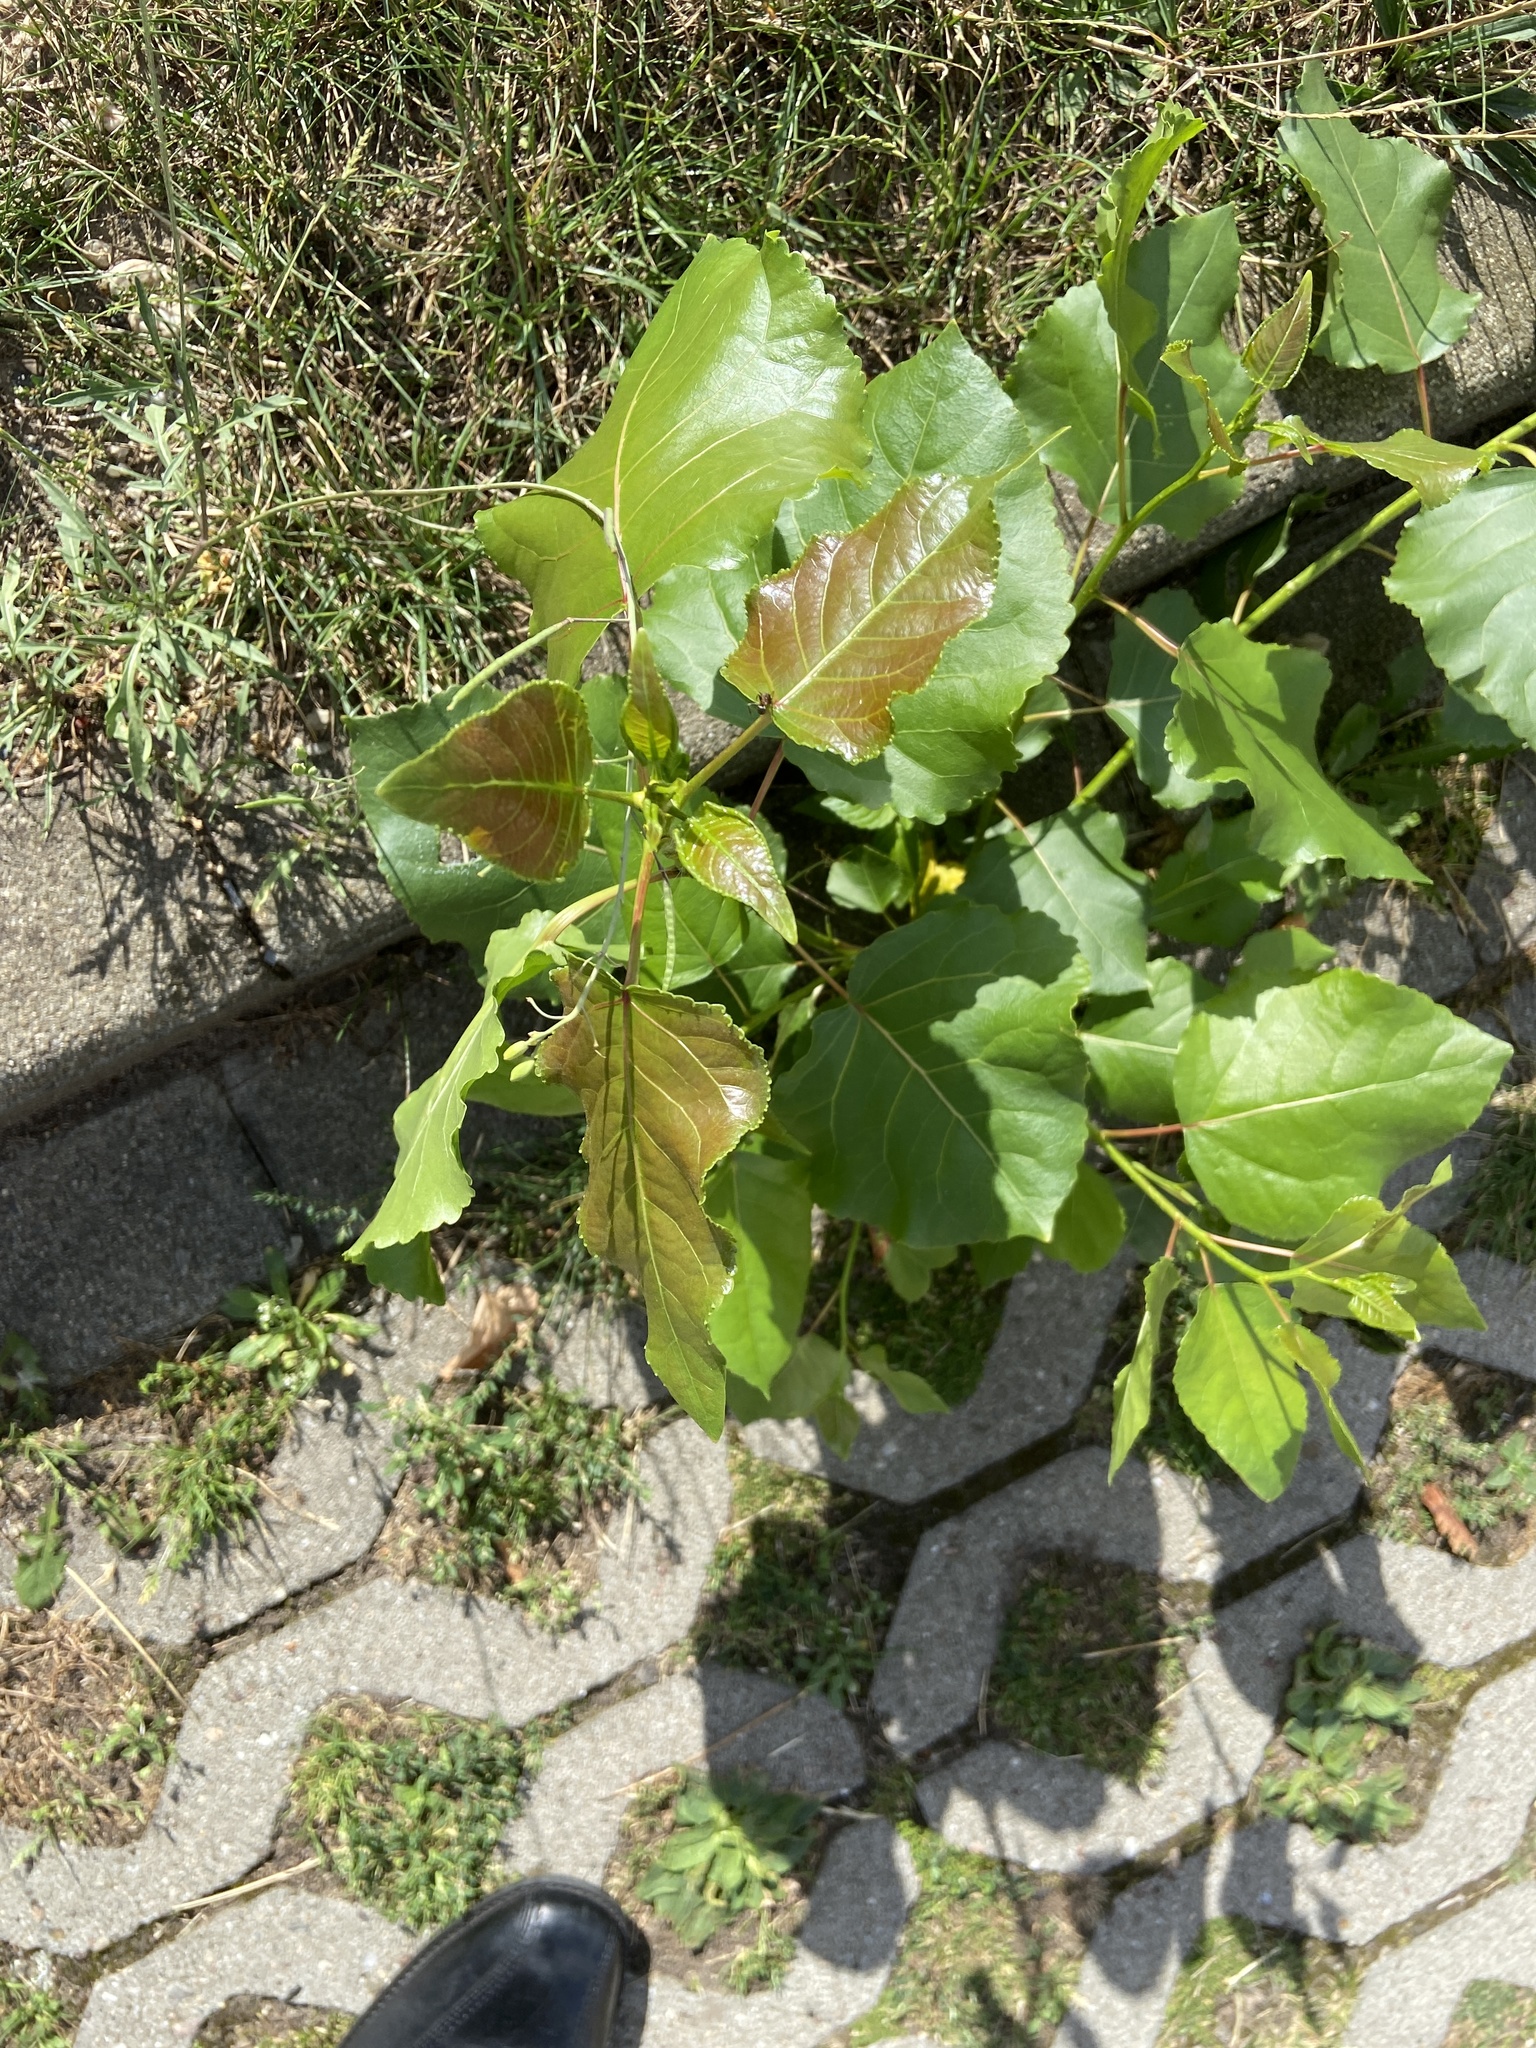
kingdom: Plantae
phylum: Tracheophyta
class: Magnoliopsida
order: Malpighiales
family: Salicaceae
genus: Populus
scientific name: Populus canadensis
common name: Carolina poplar
